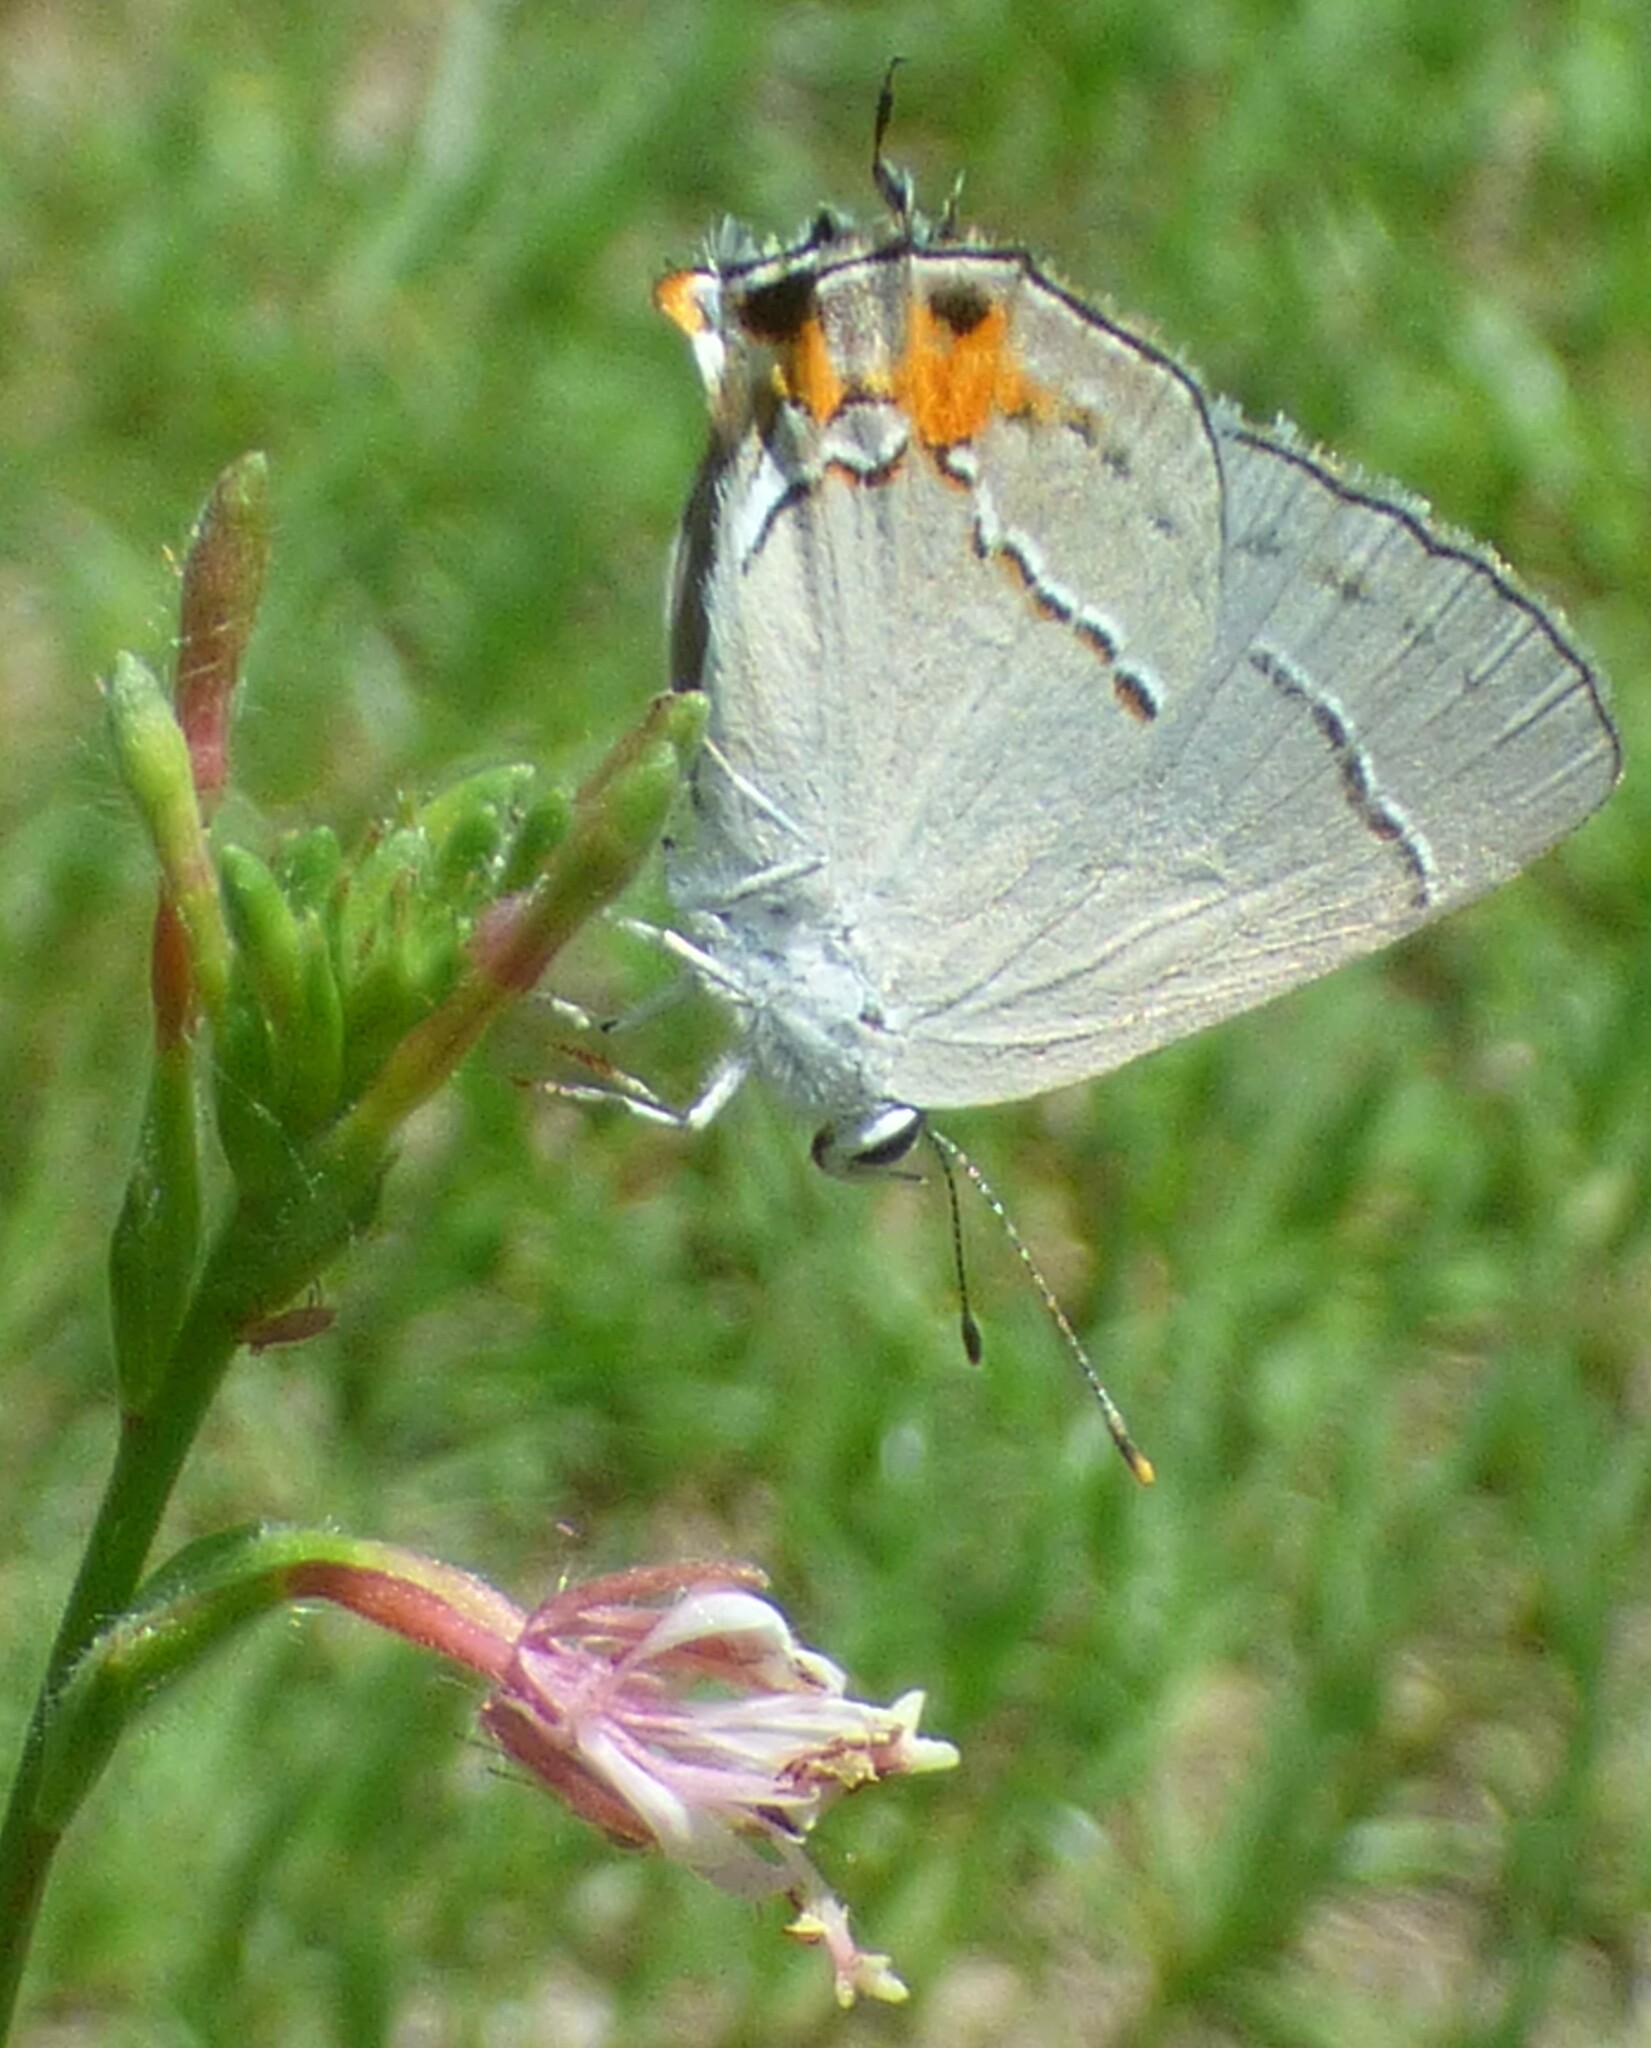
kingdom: Animalia
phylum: Arthropoda
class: Insecta
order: Lepidoptera
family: Lycaenidae
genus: Strymon
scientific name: Strymon melinus
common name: Gray hairstreak
